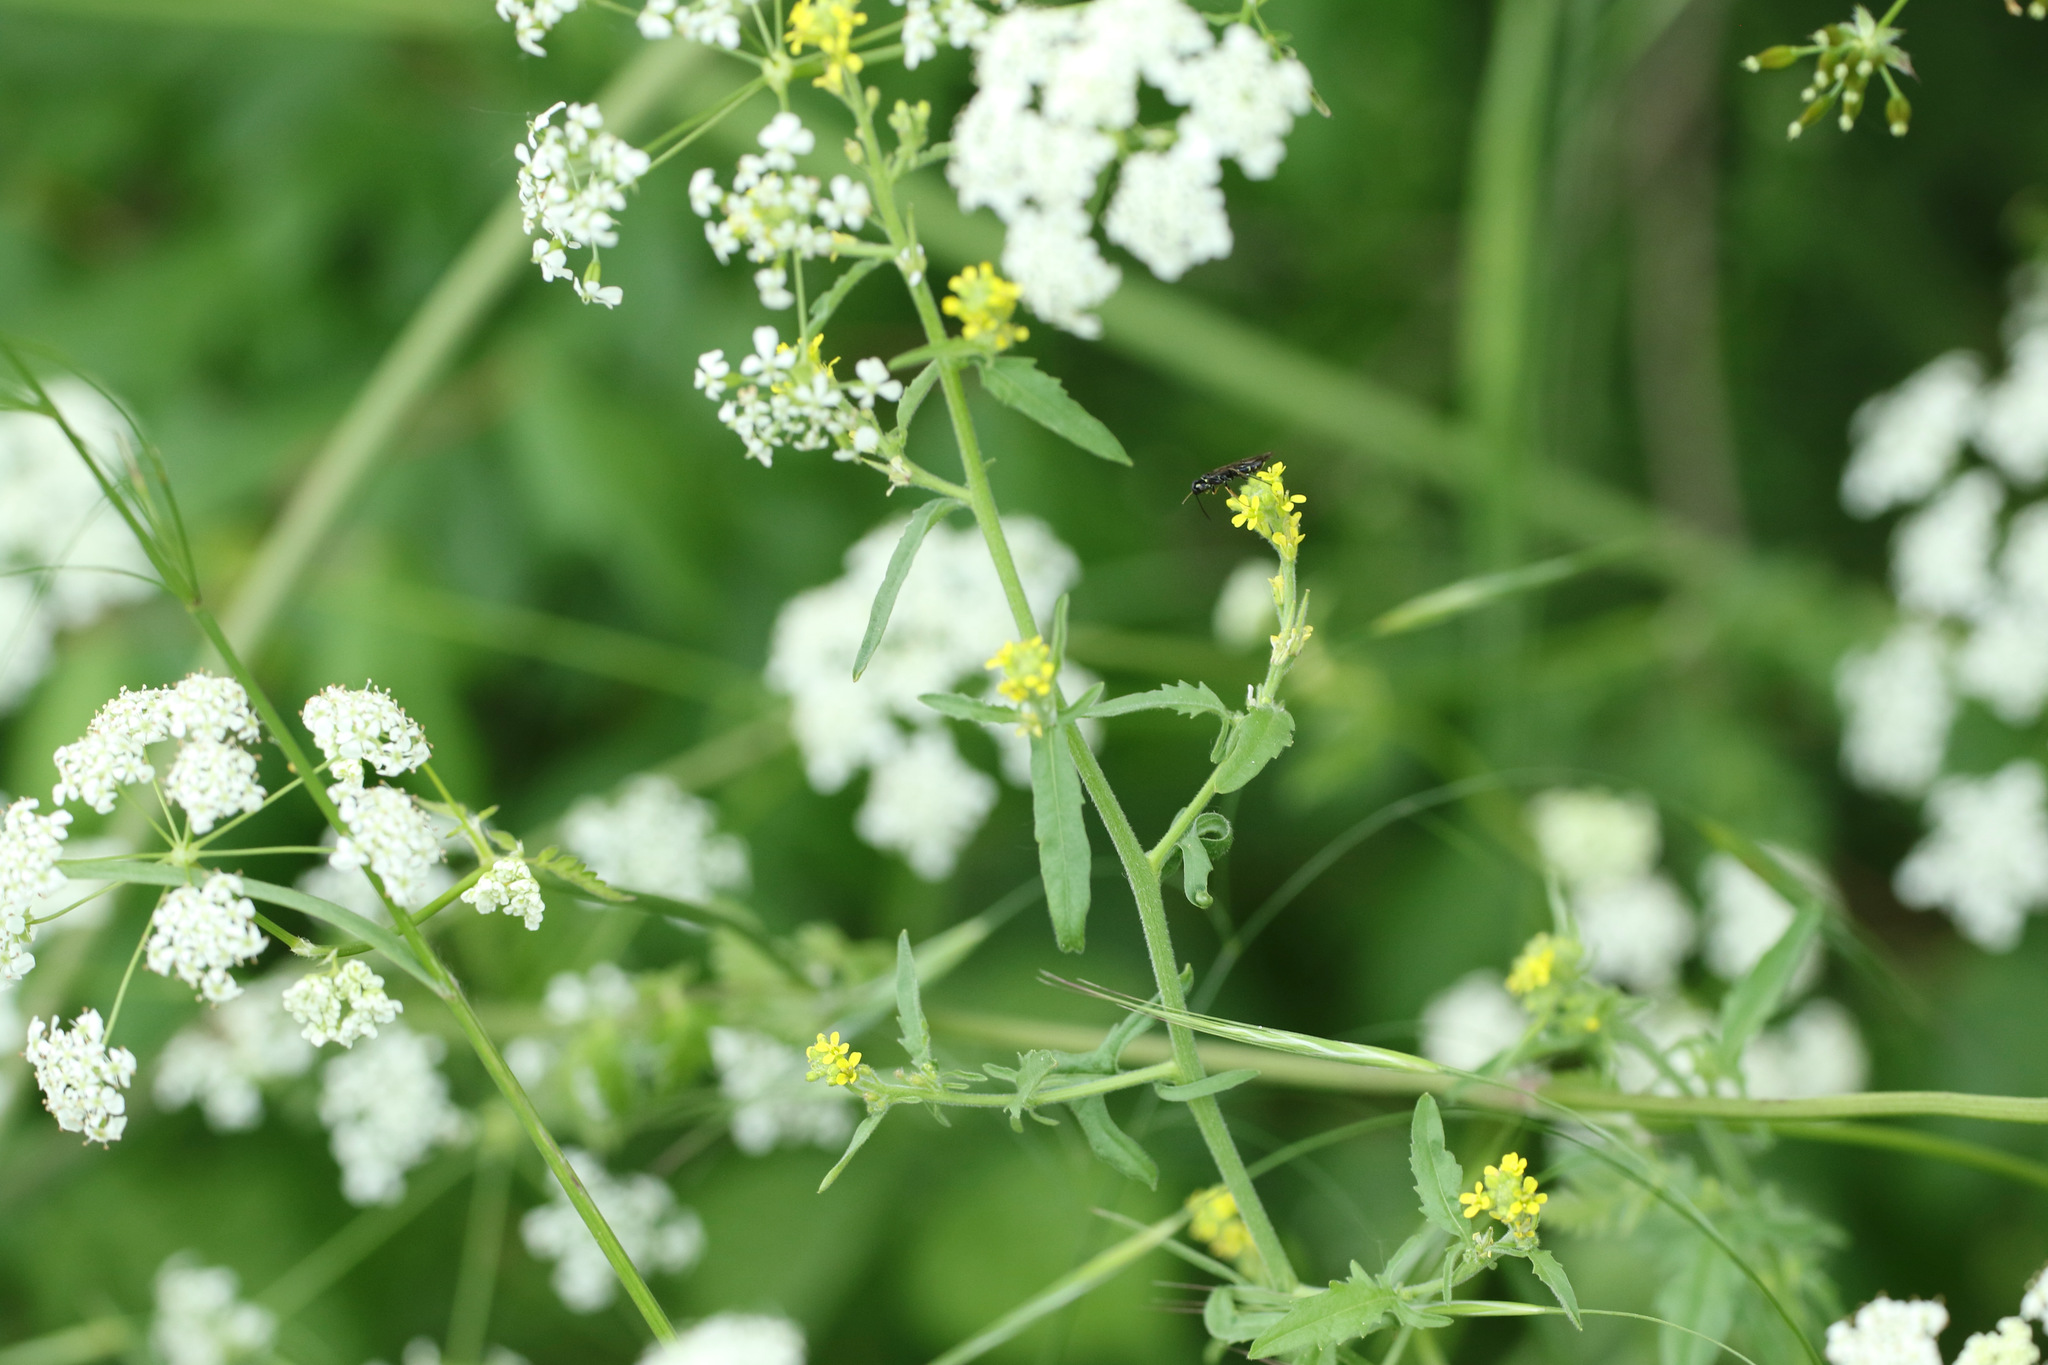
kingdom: Plantae
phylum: Tracheophyta
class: Magnoliopsida
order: Brassicales
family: Brassicaceae
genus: Sisymbrium
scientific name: Sisymbrium officinale
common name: Hedge mustard
